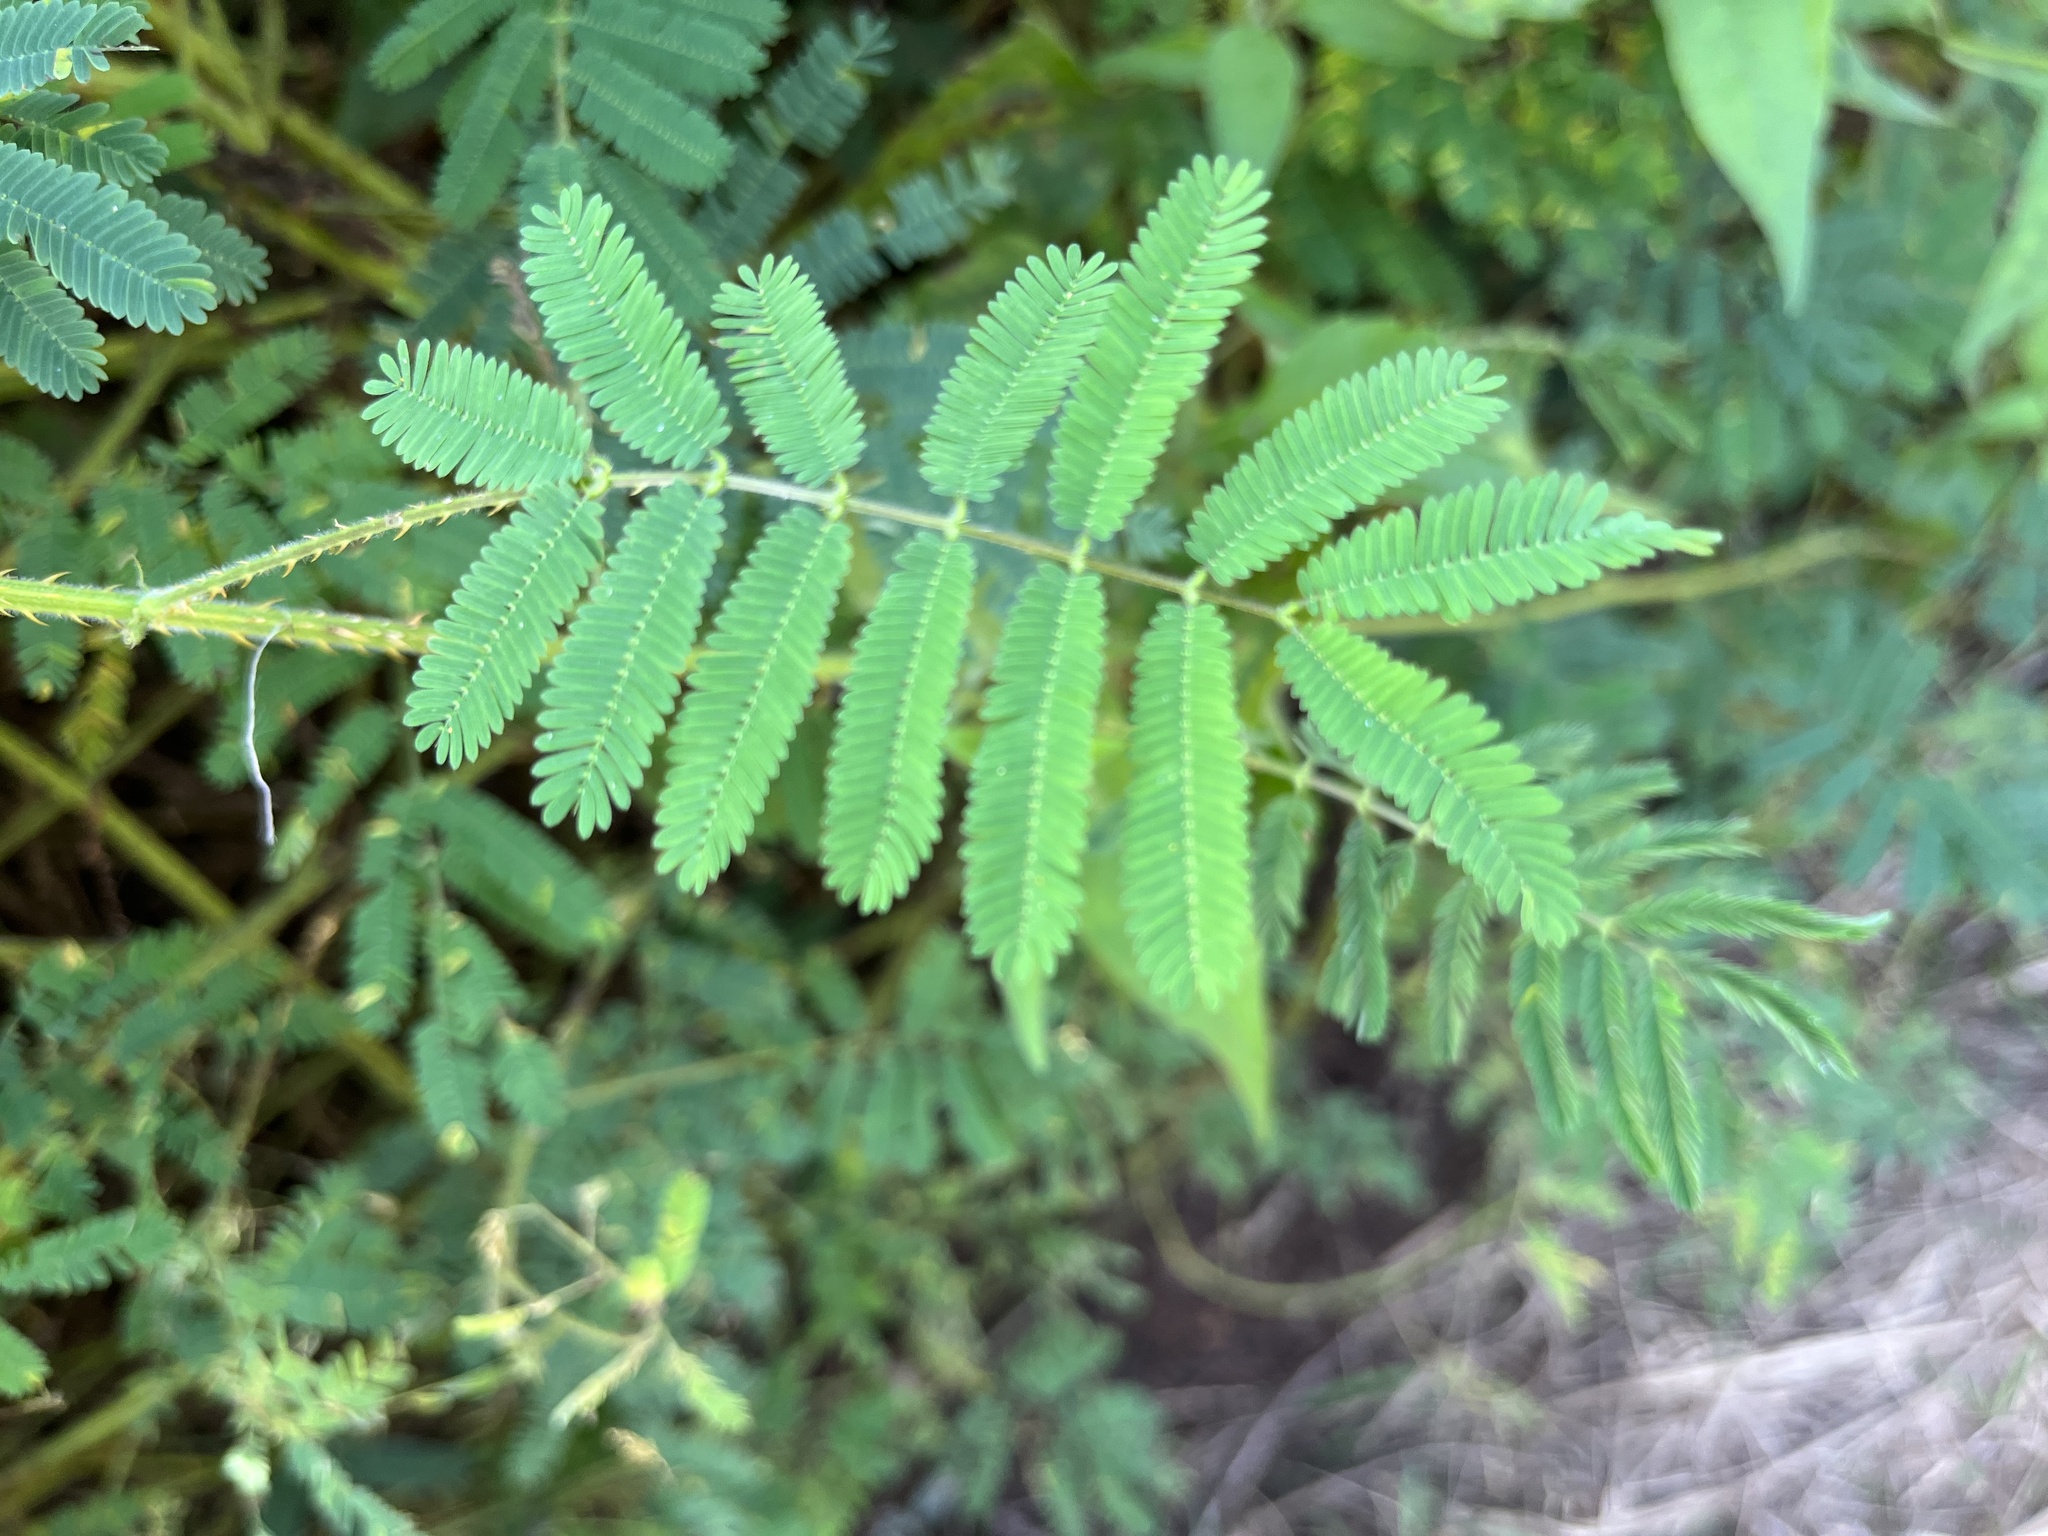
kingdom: Plantae
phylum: Tracheophyta
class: Magnoliopsida
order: Fabales
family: Fabaceae
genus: Mimosa
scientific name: Mimosa diplotricha
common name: Giant sensitive-plant
